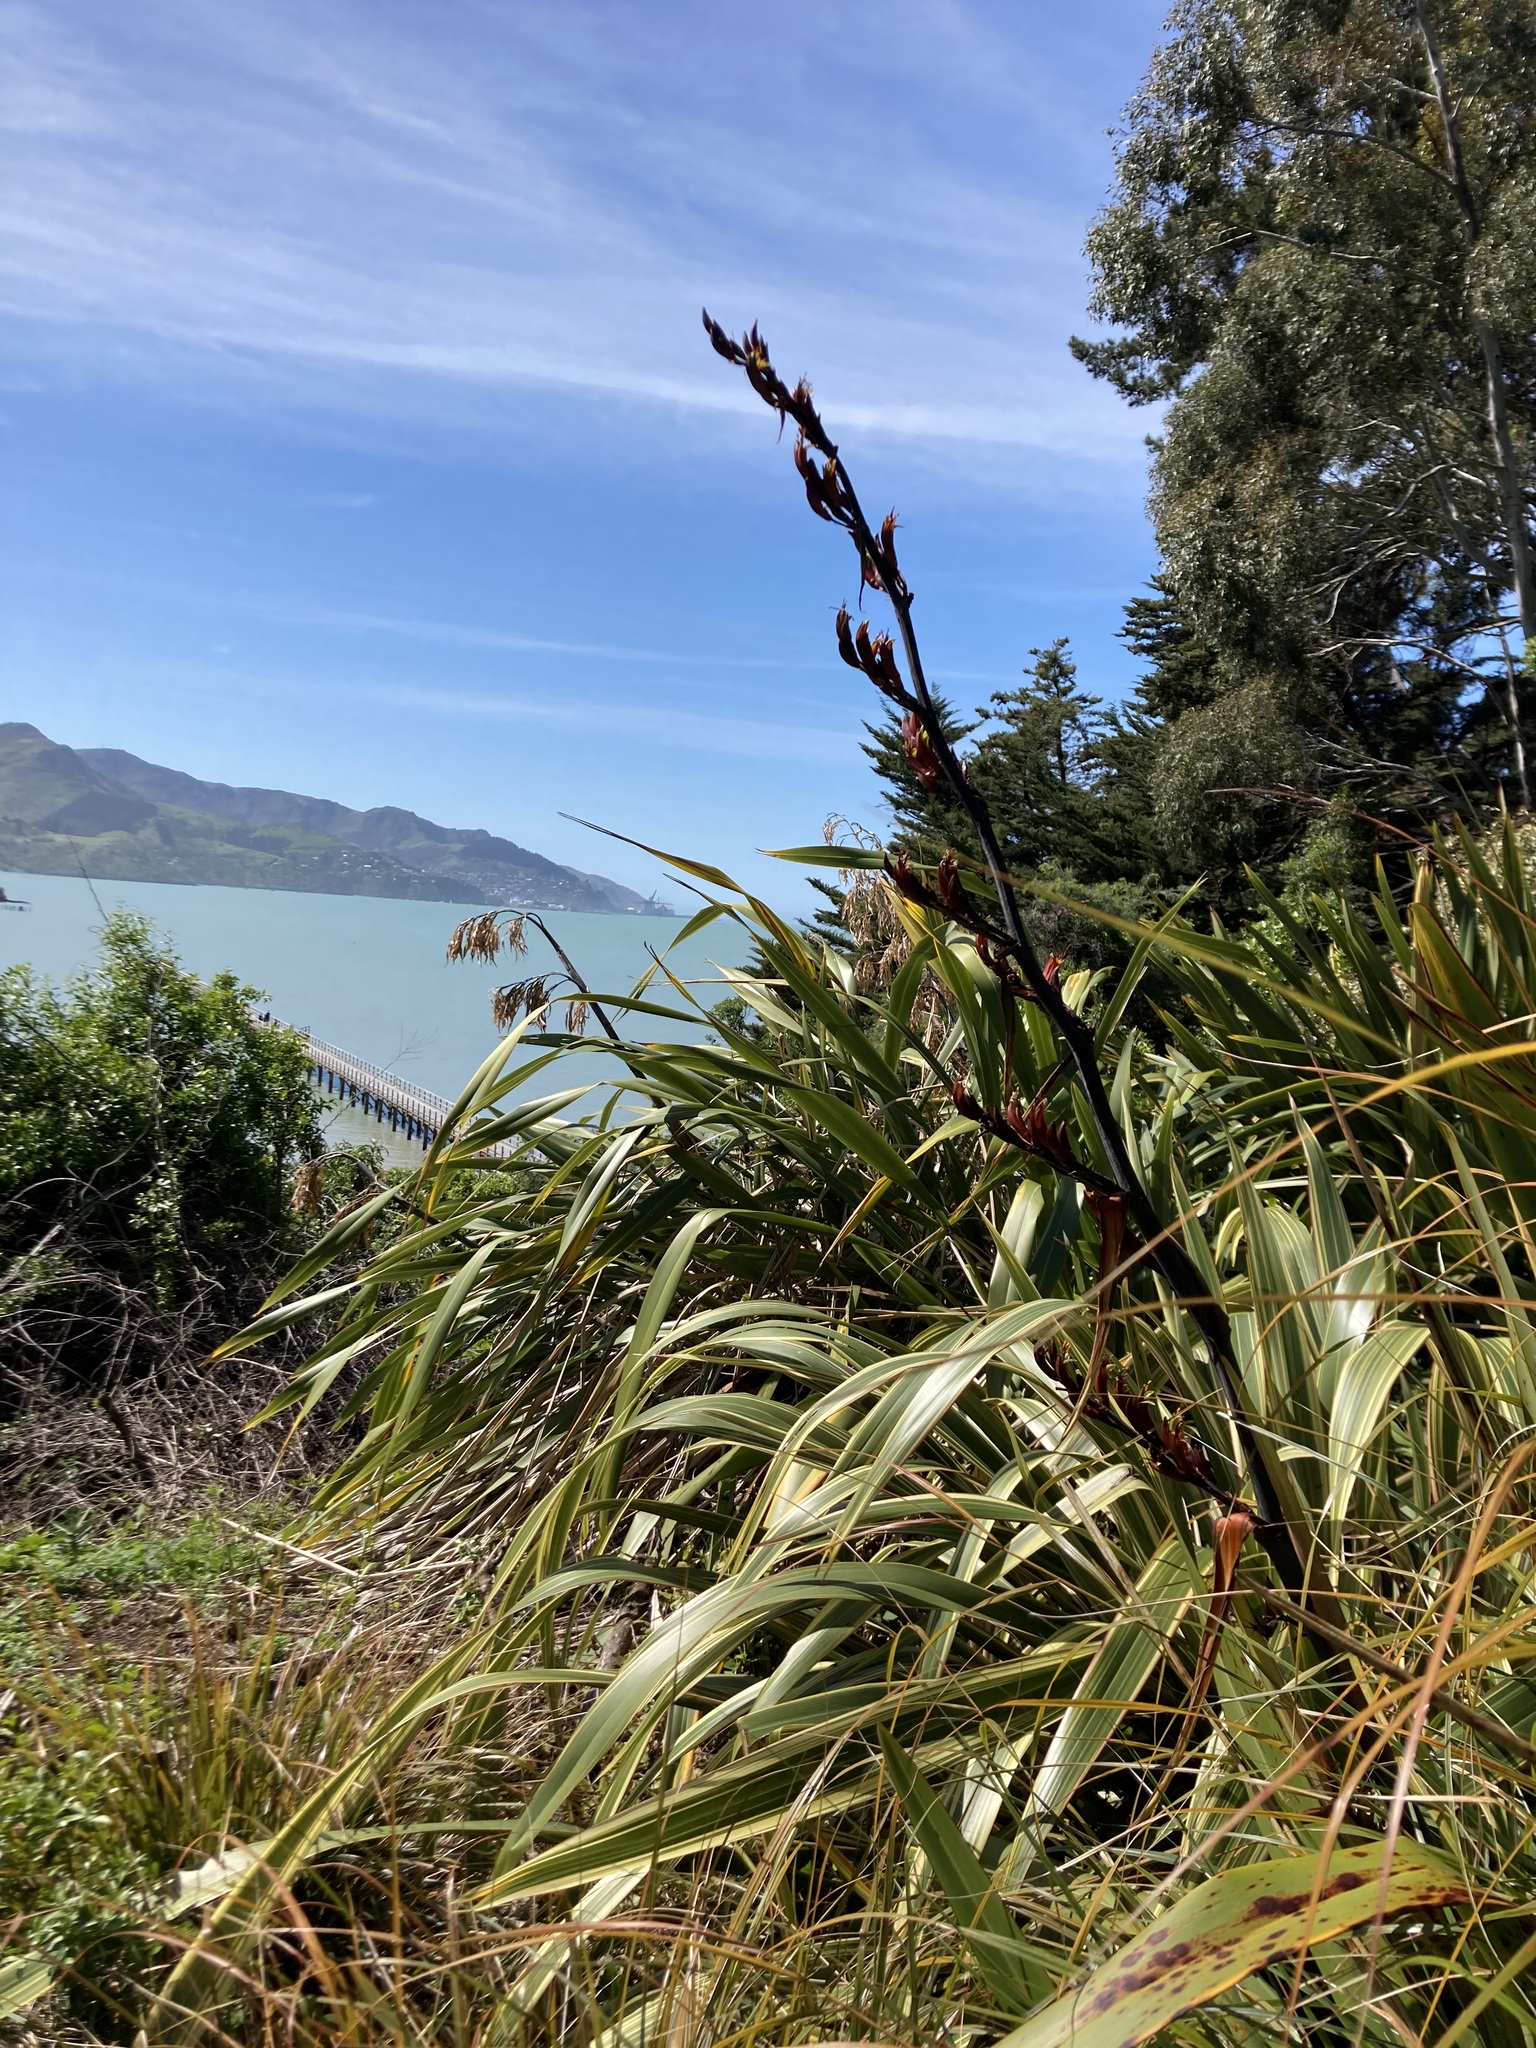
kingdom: Plantae
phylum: Tracheophyta
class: Liliopsida
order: Asparagales
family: Asphodelaceae
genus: Phormium
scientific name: Phormium tenax
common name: New zealand flax
